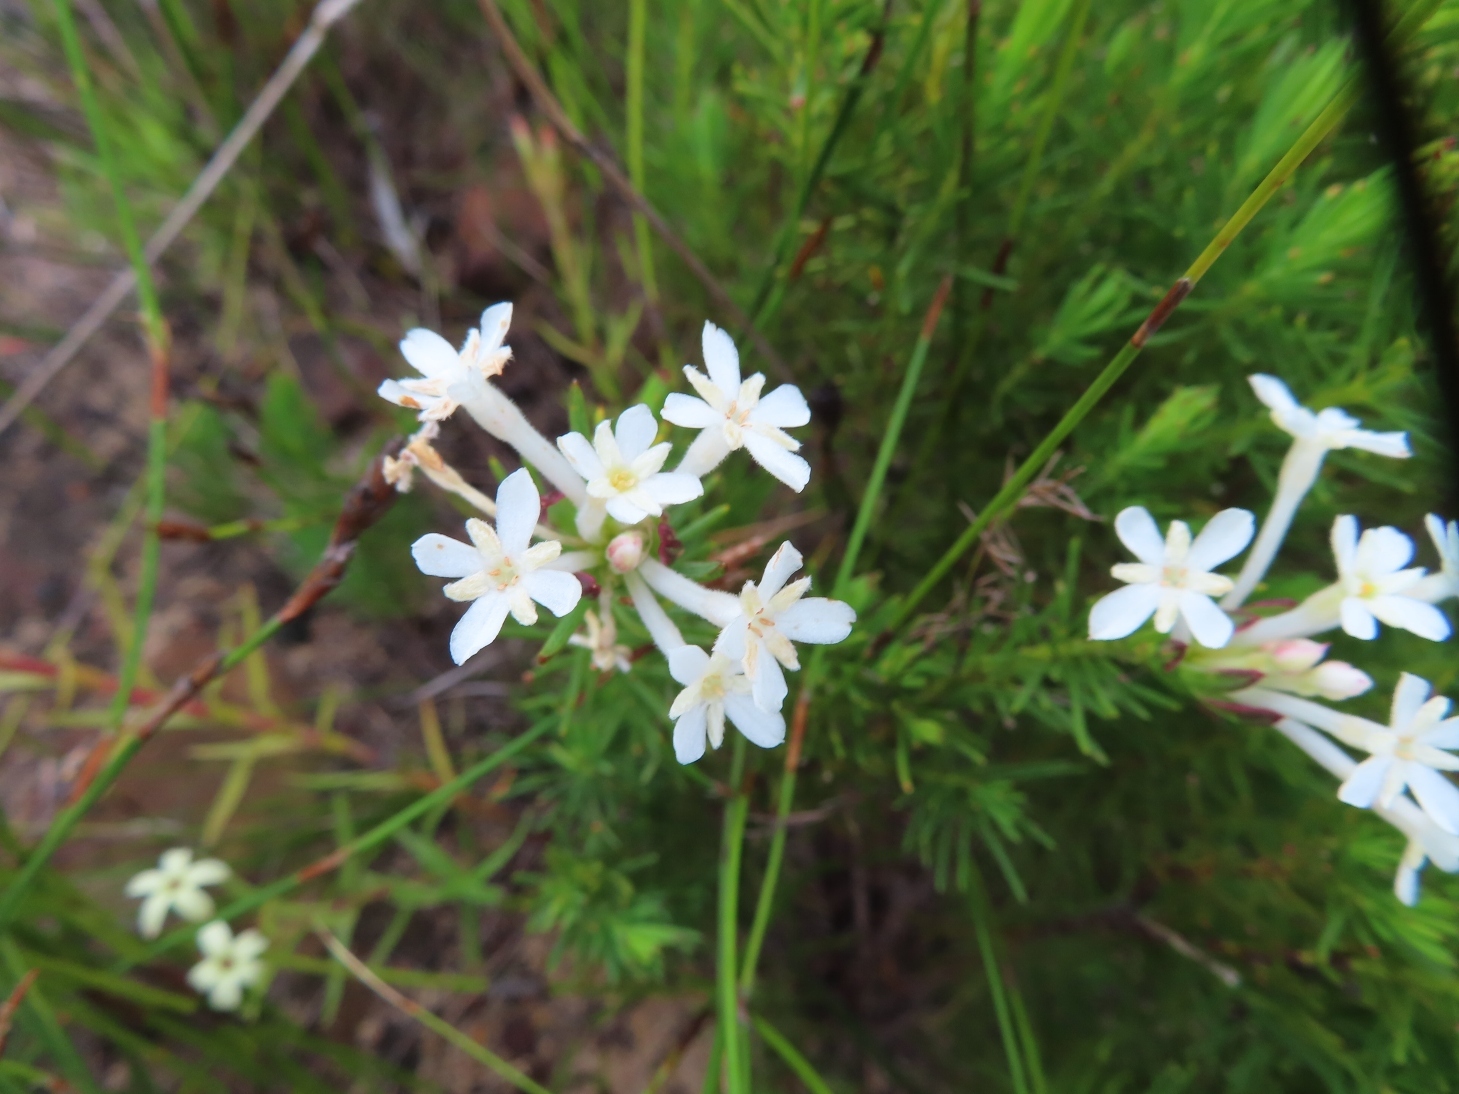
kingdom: Plantae
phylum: Tracheophyta
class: Magnoliopsida
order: Malvales
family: Thymelaeaceae
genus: Gnidia
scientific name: Gnidia pinifolia
